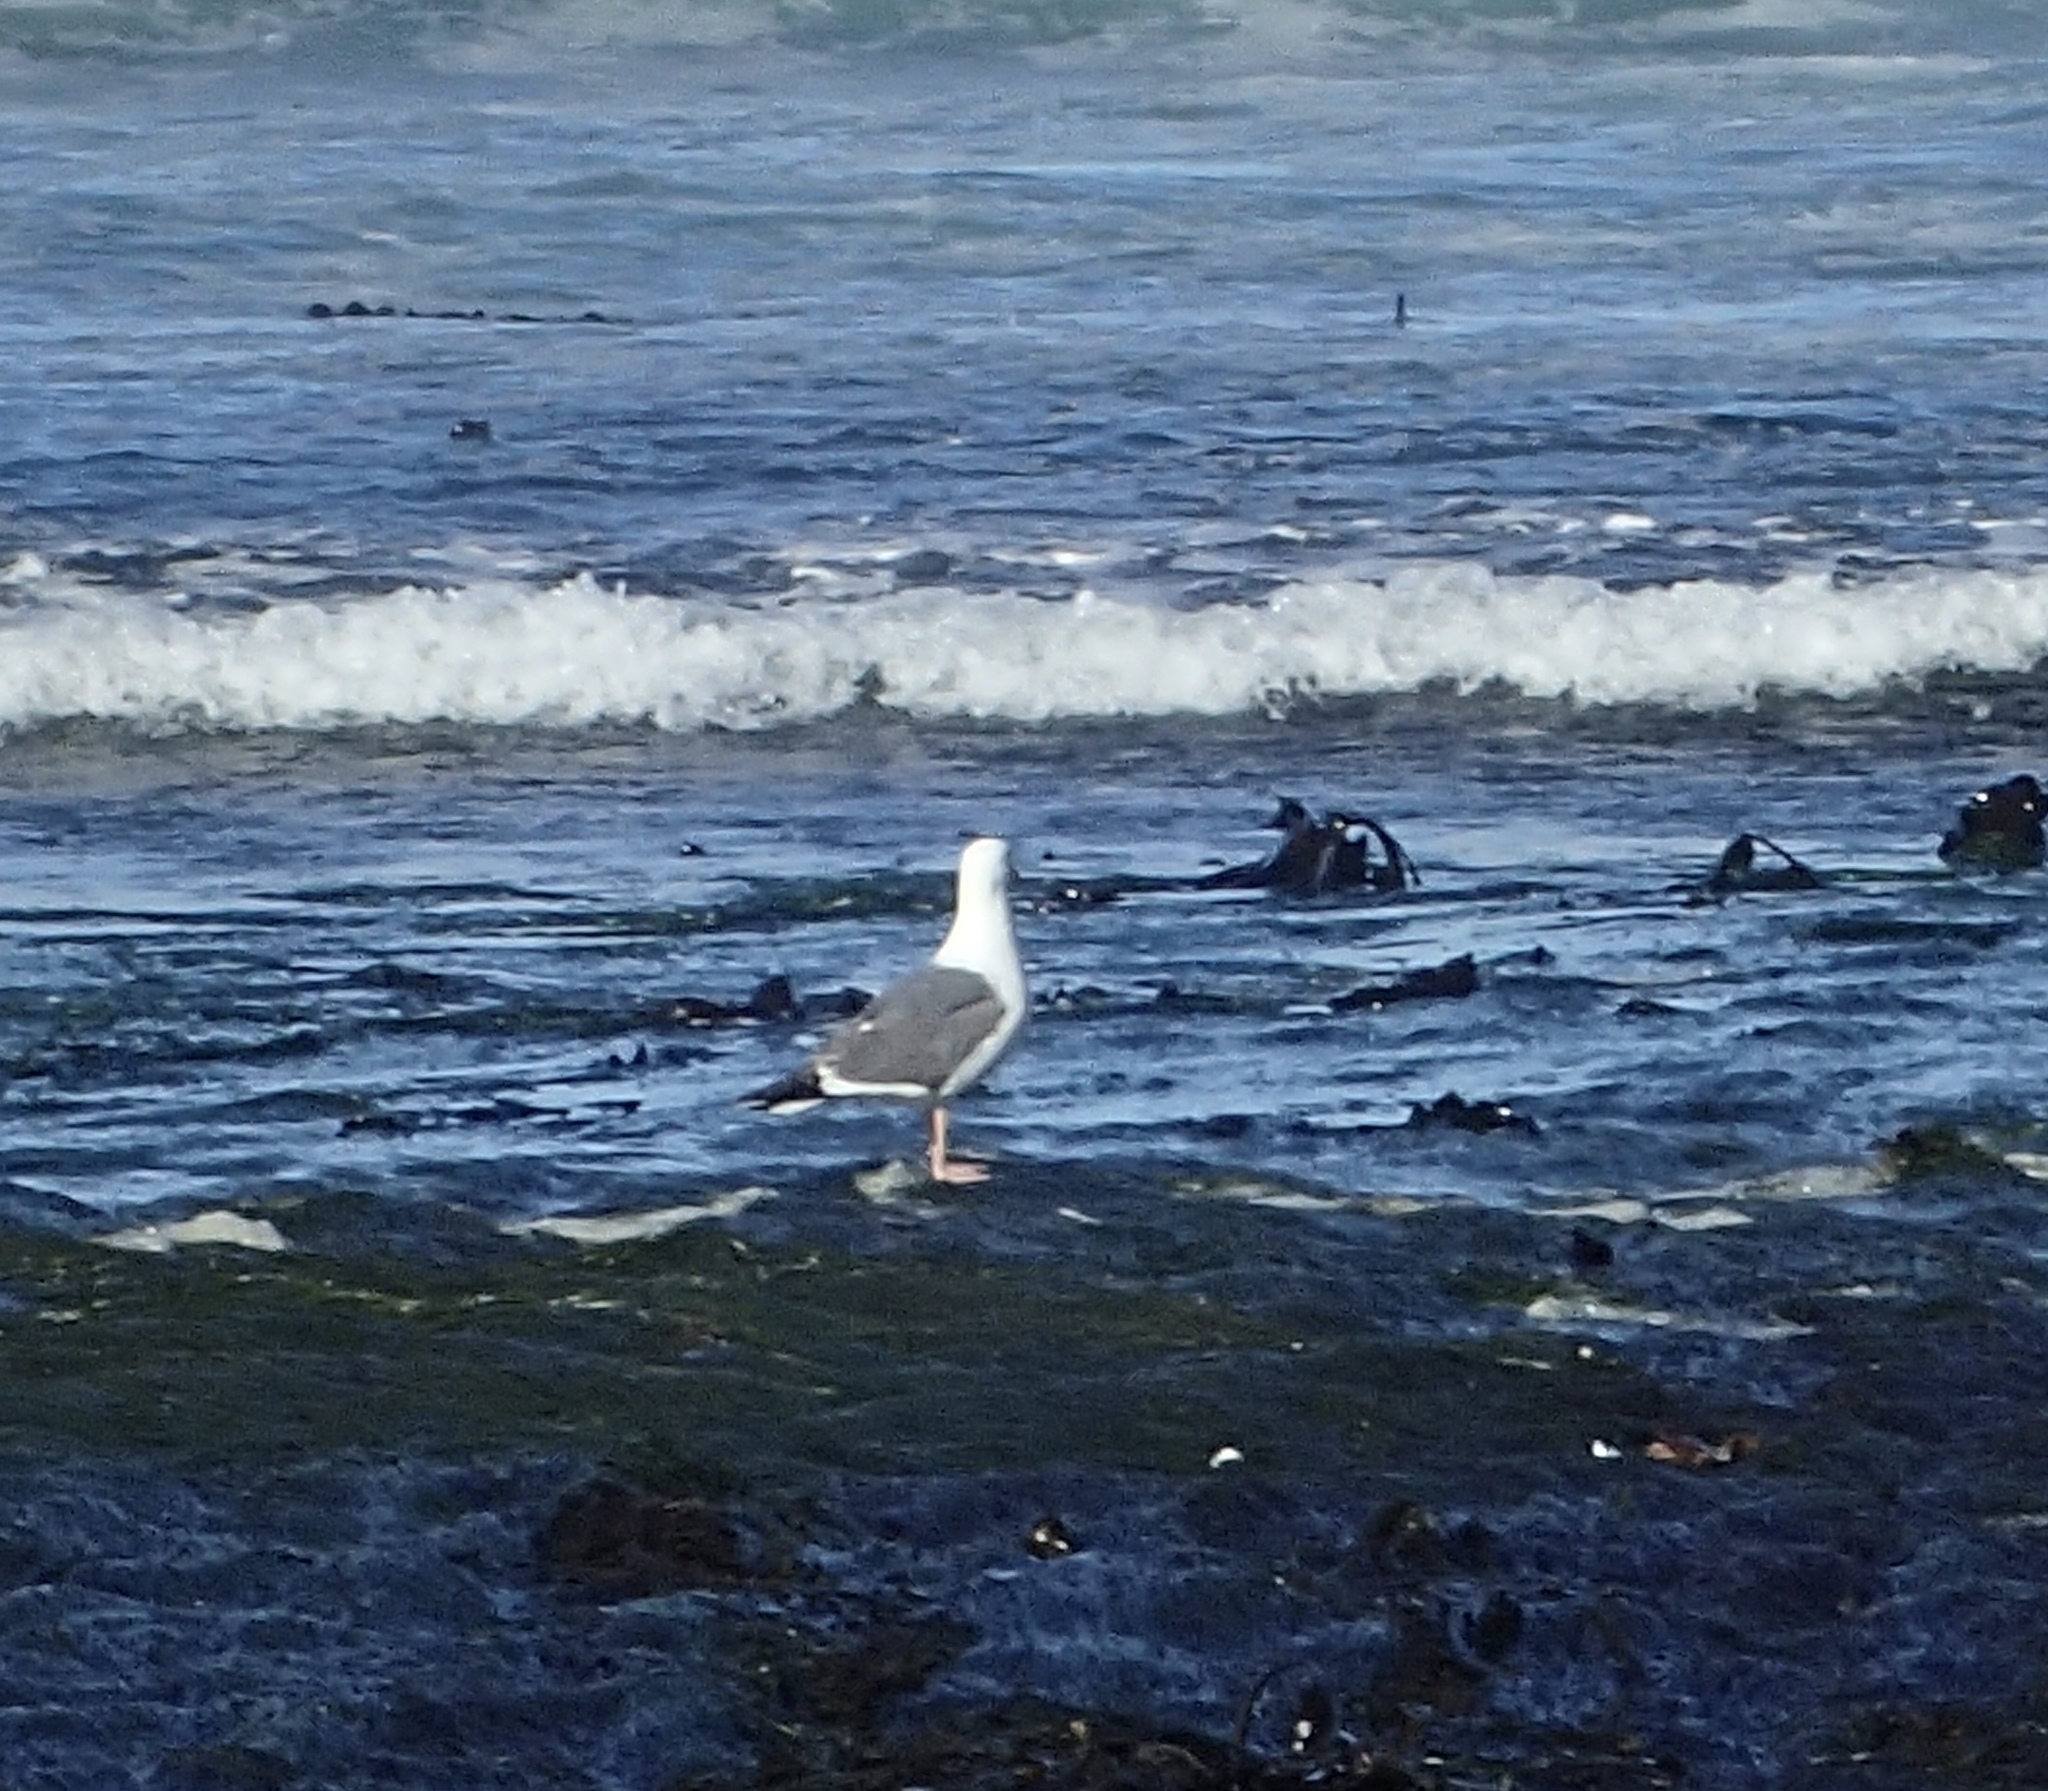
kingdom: Animalia
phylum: Chordata
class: Aves
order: Charadriiformes
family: Laridae
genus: Larus
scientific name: Larus occidentalis
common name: Western gull
